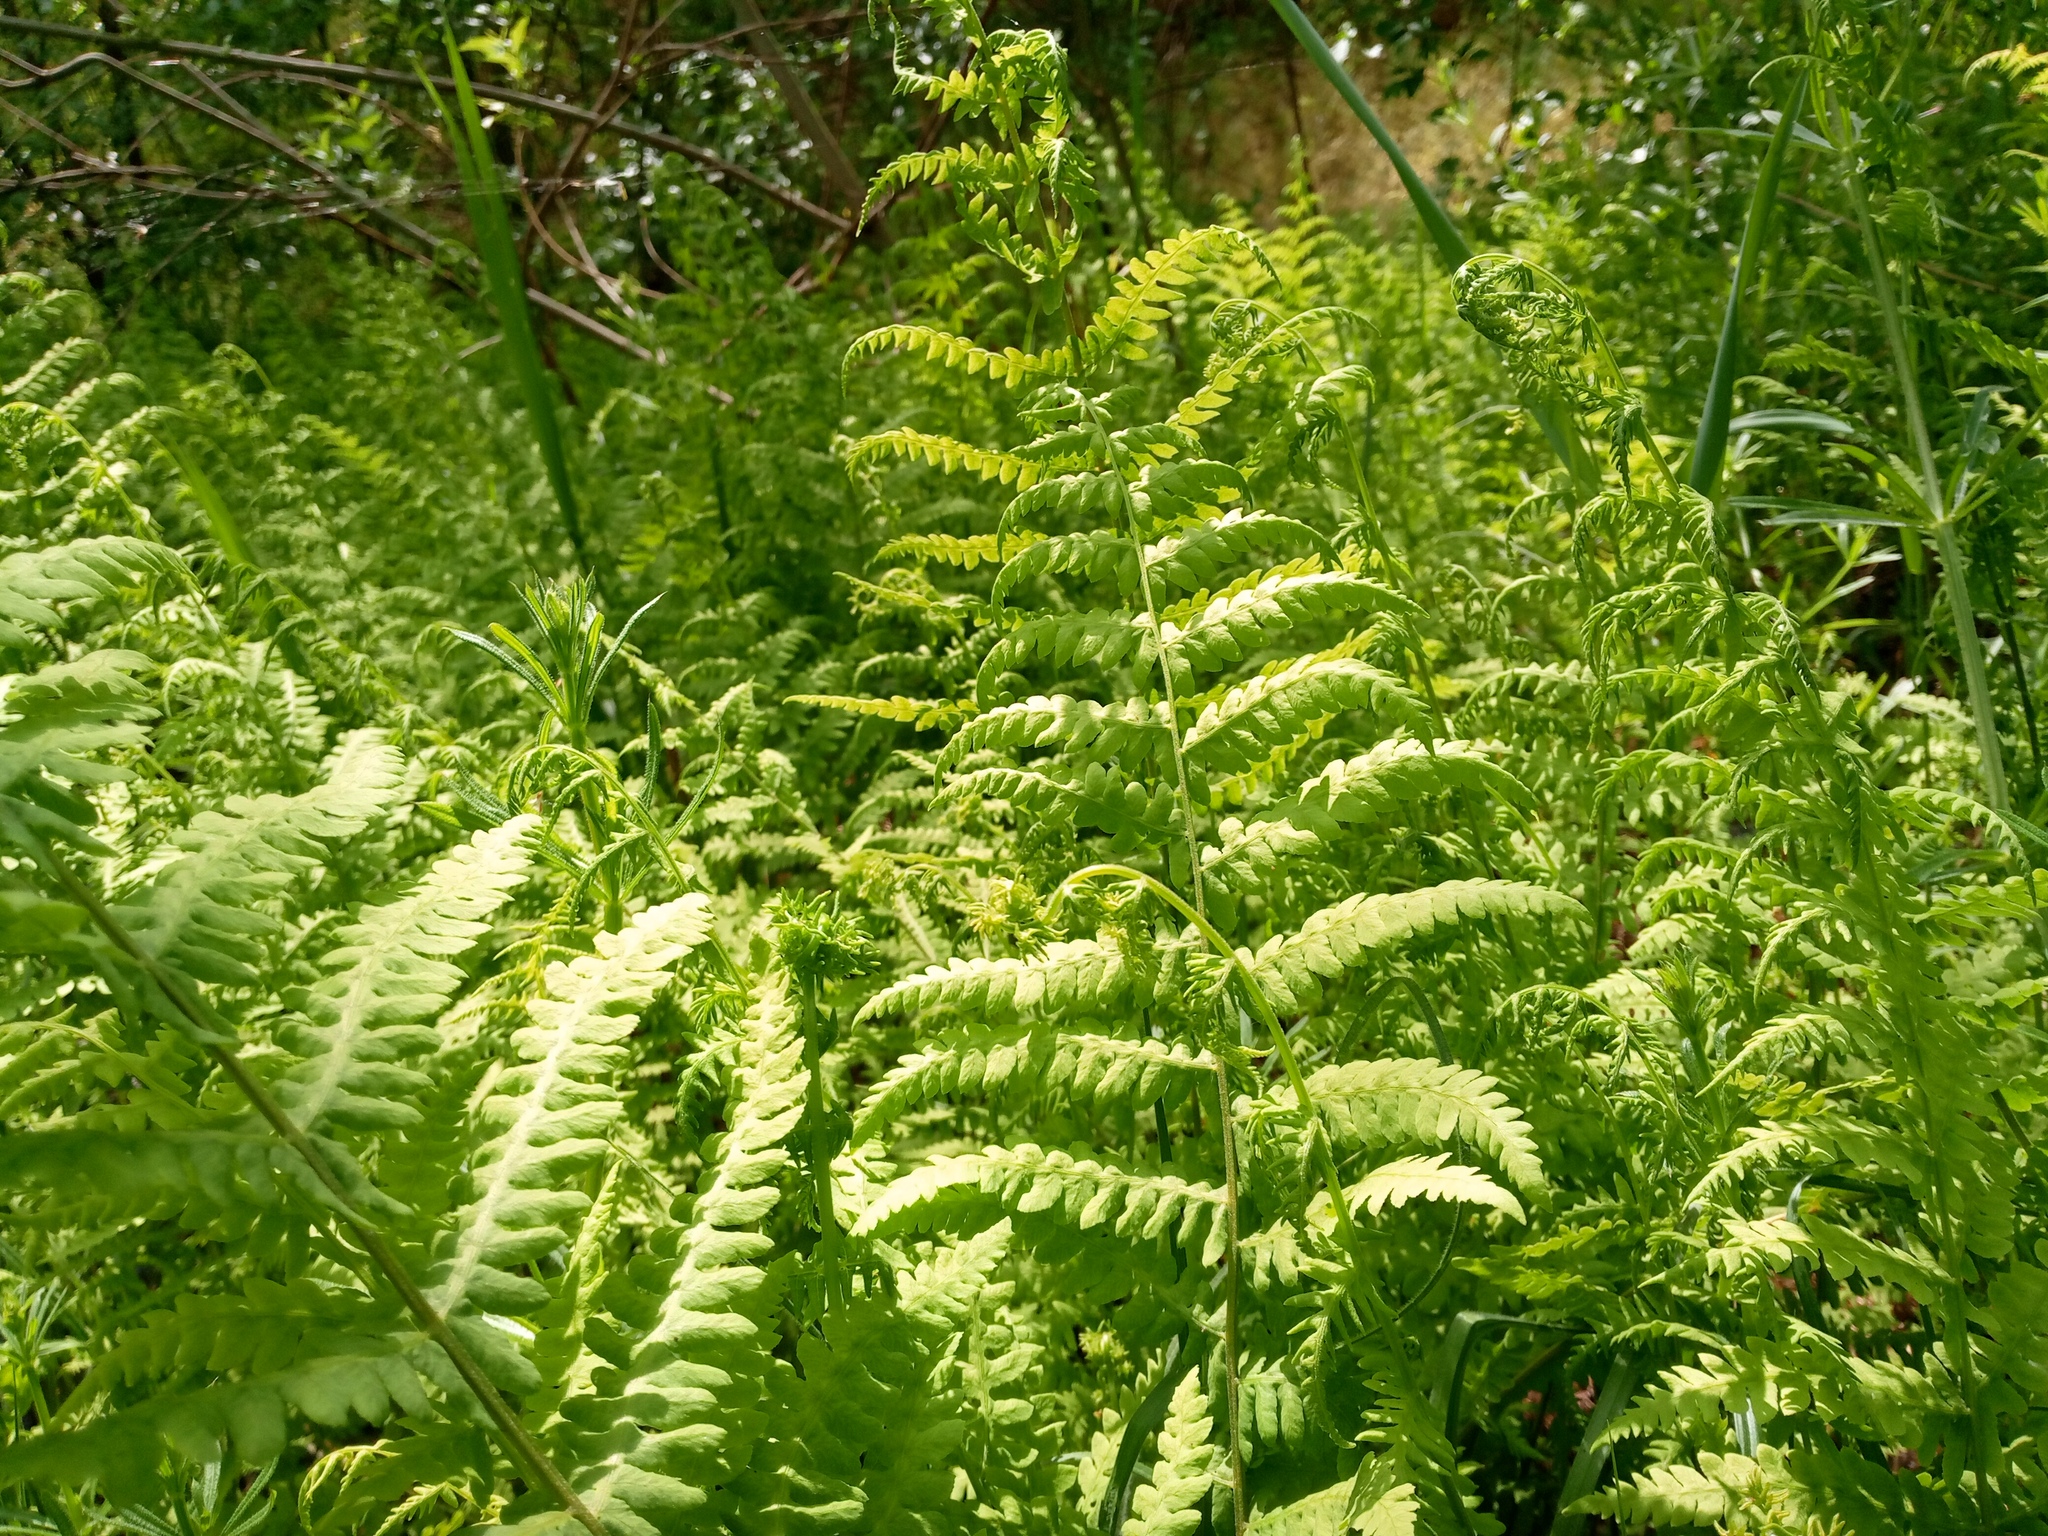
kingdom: Plantae
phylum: Tracheophyta
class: Polypodiopsida
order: Polypodiales
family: Thelypteridaceae
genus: Thelypteris
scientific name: Thelypteris palustris
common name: Marsh fern
